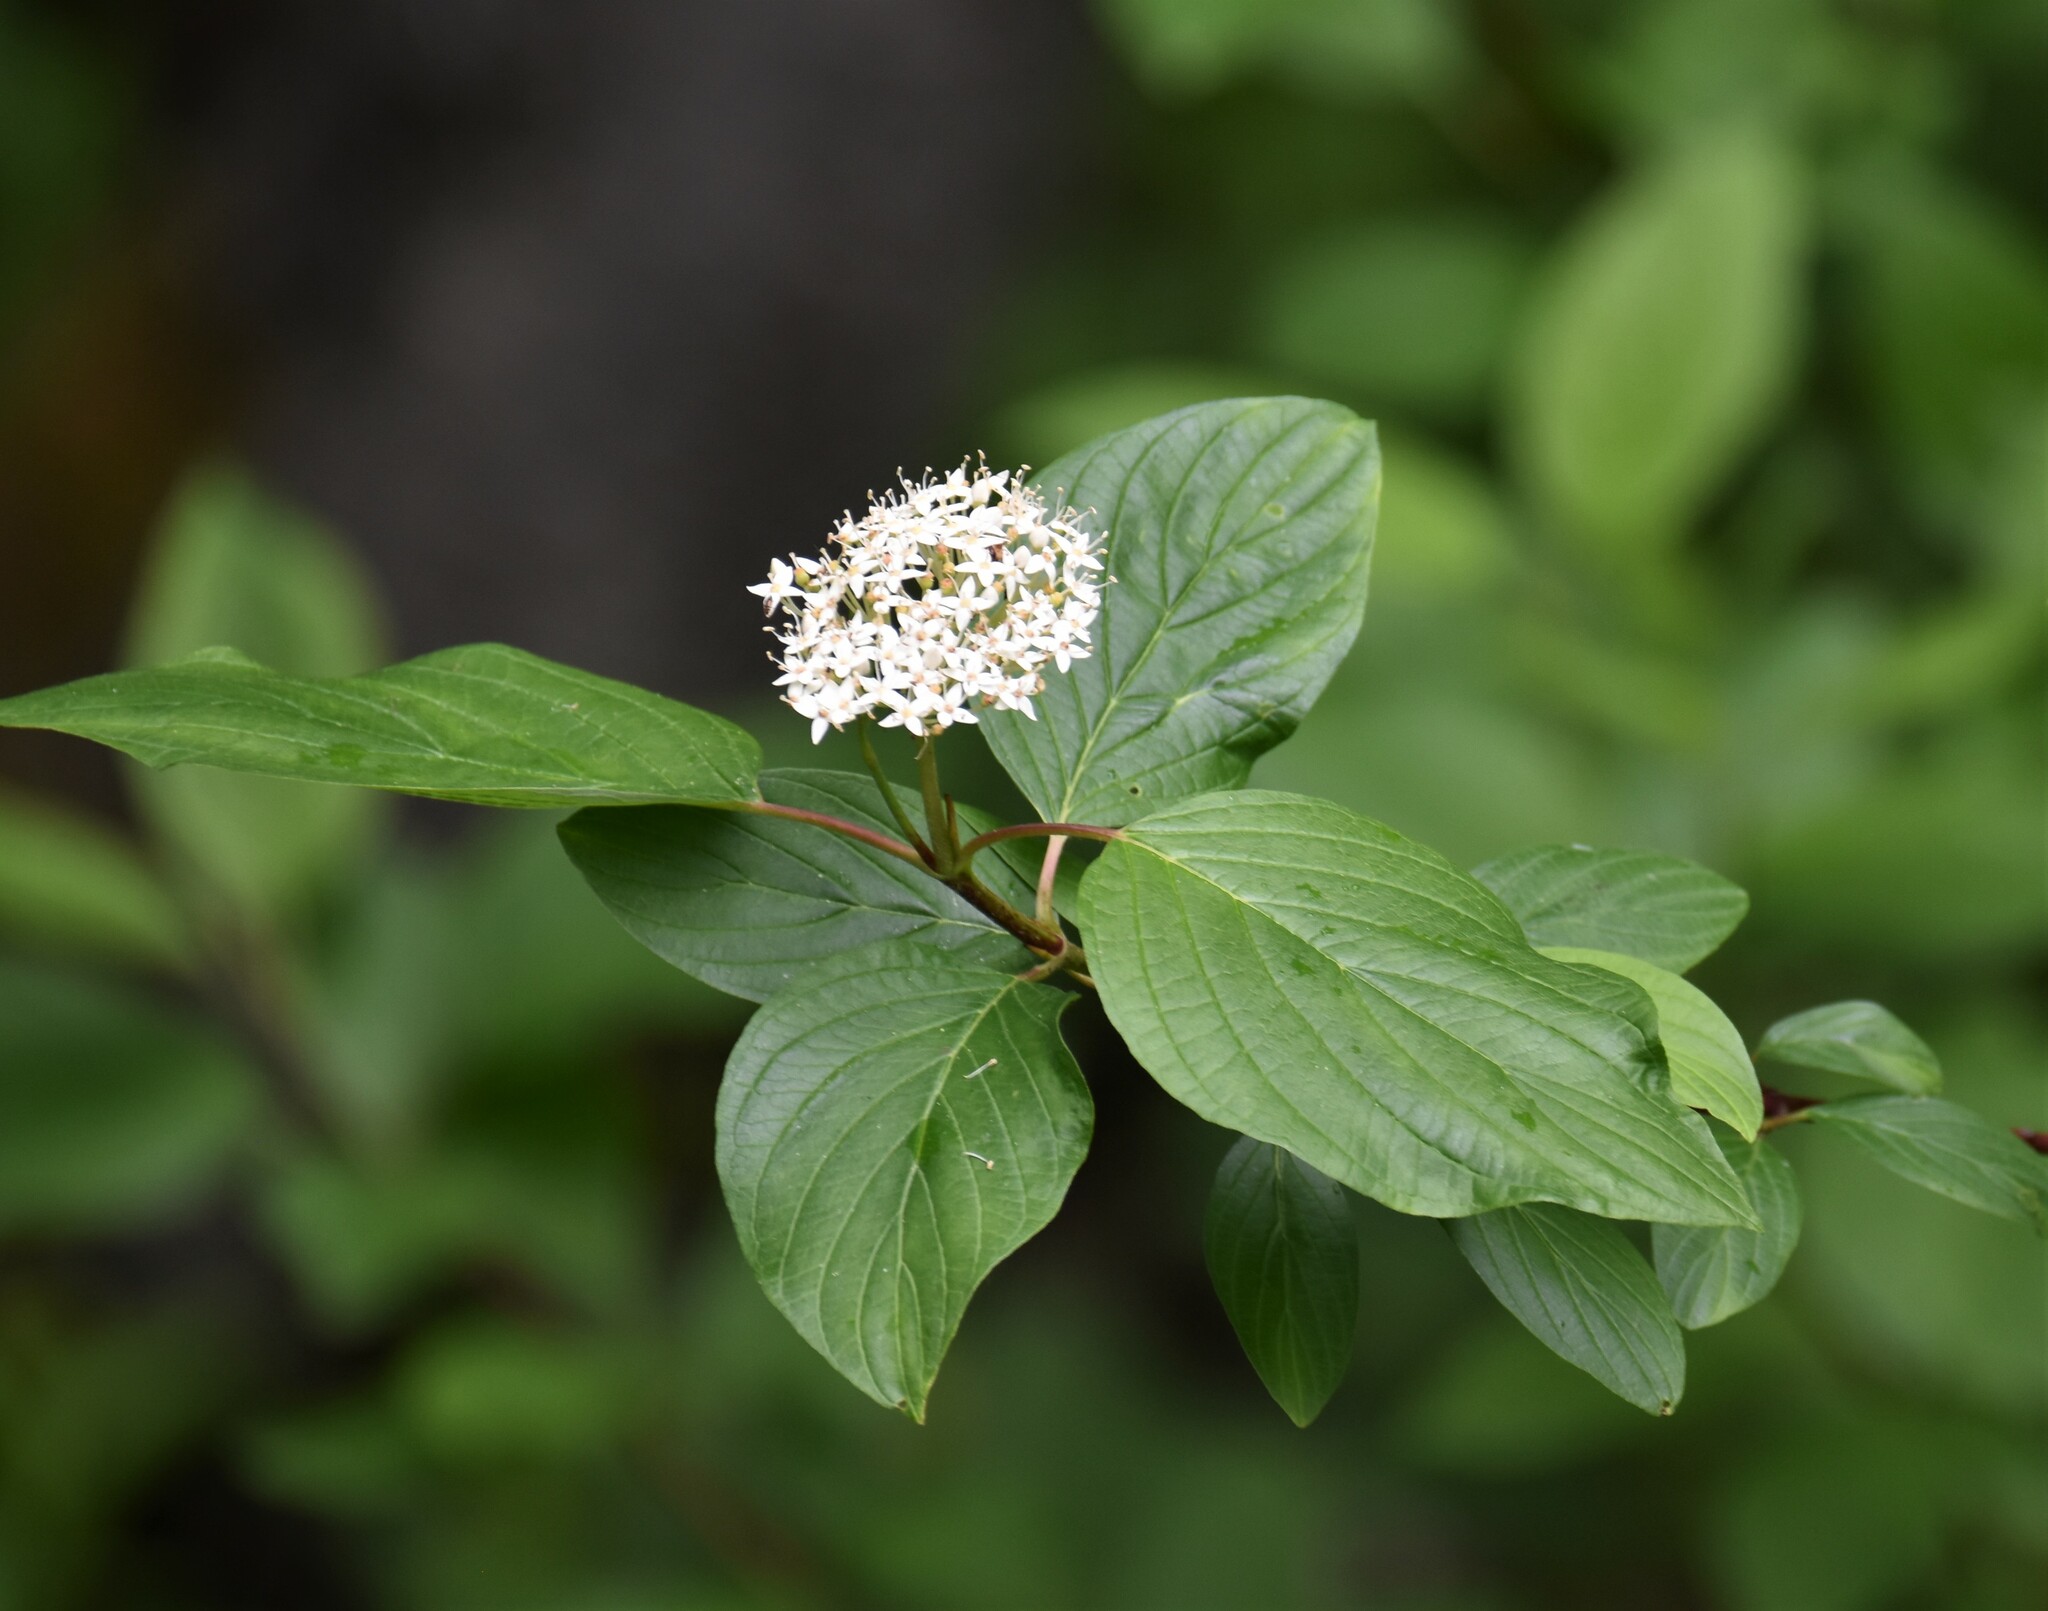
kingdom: Plantae
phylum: Tracheophyta
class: Magnoliopsida
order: Cornales
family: Cornaceae
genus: Cornus
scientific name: Cornus sericea
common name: Red-osier dogwood
